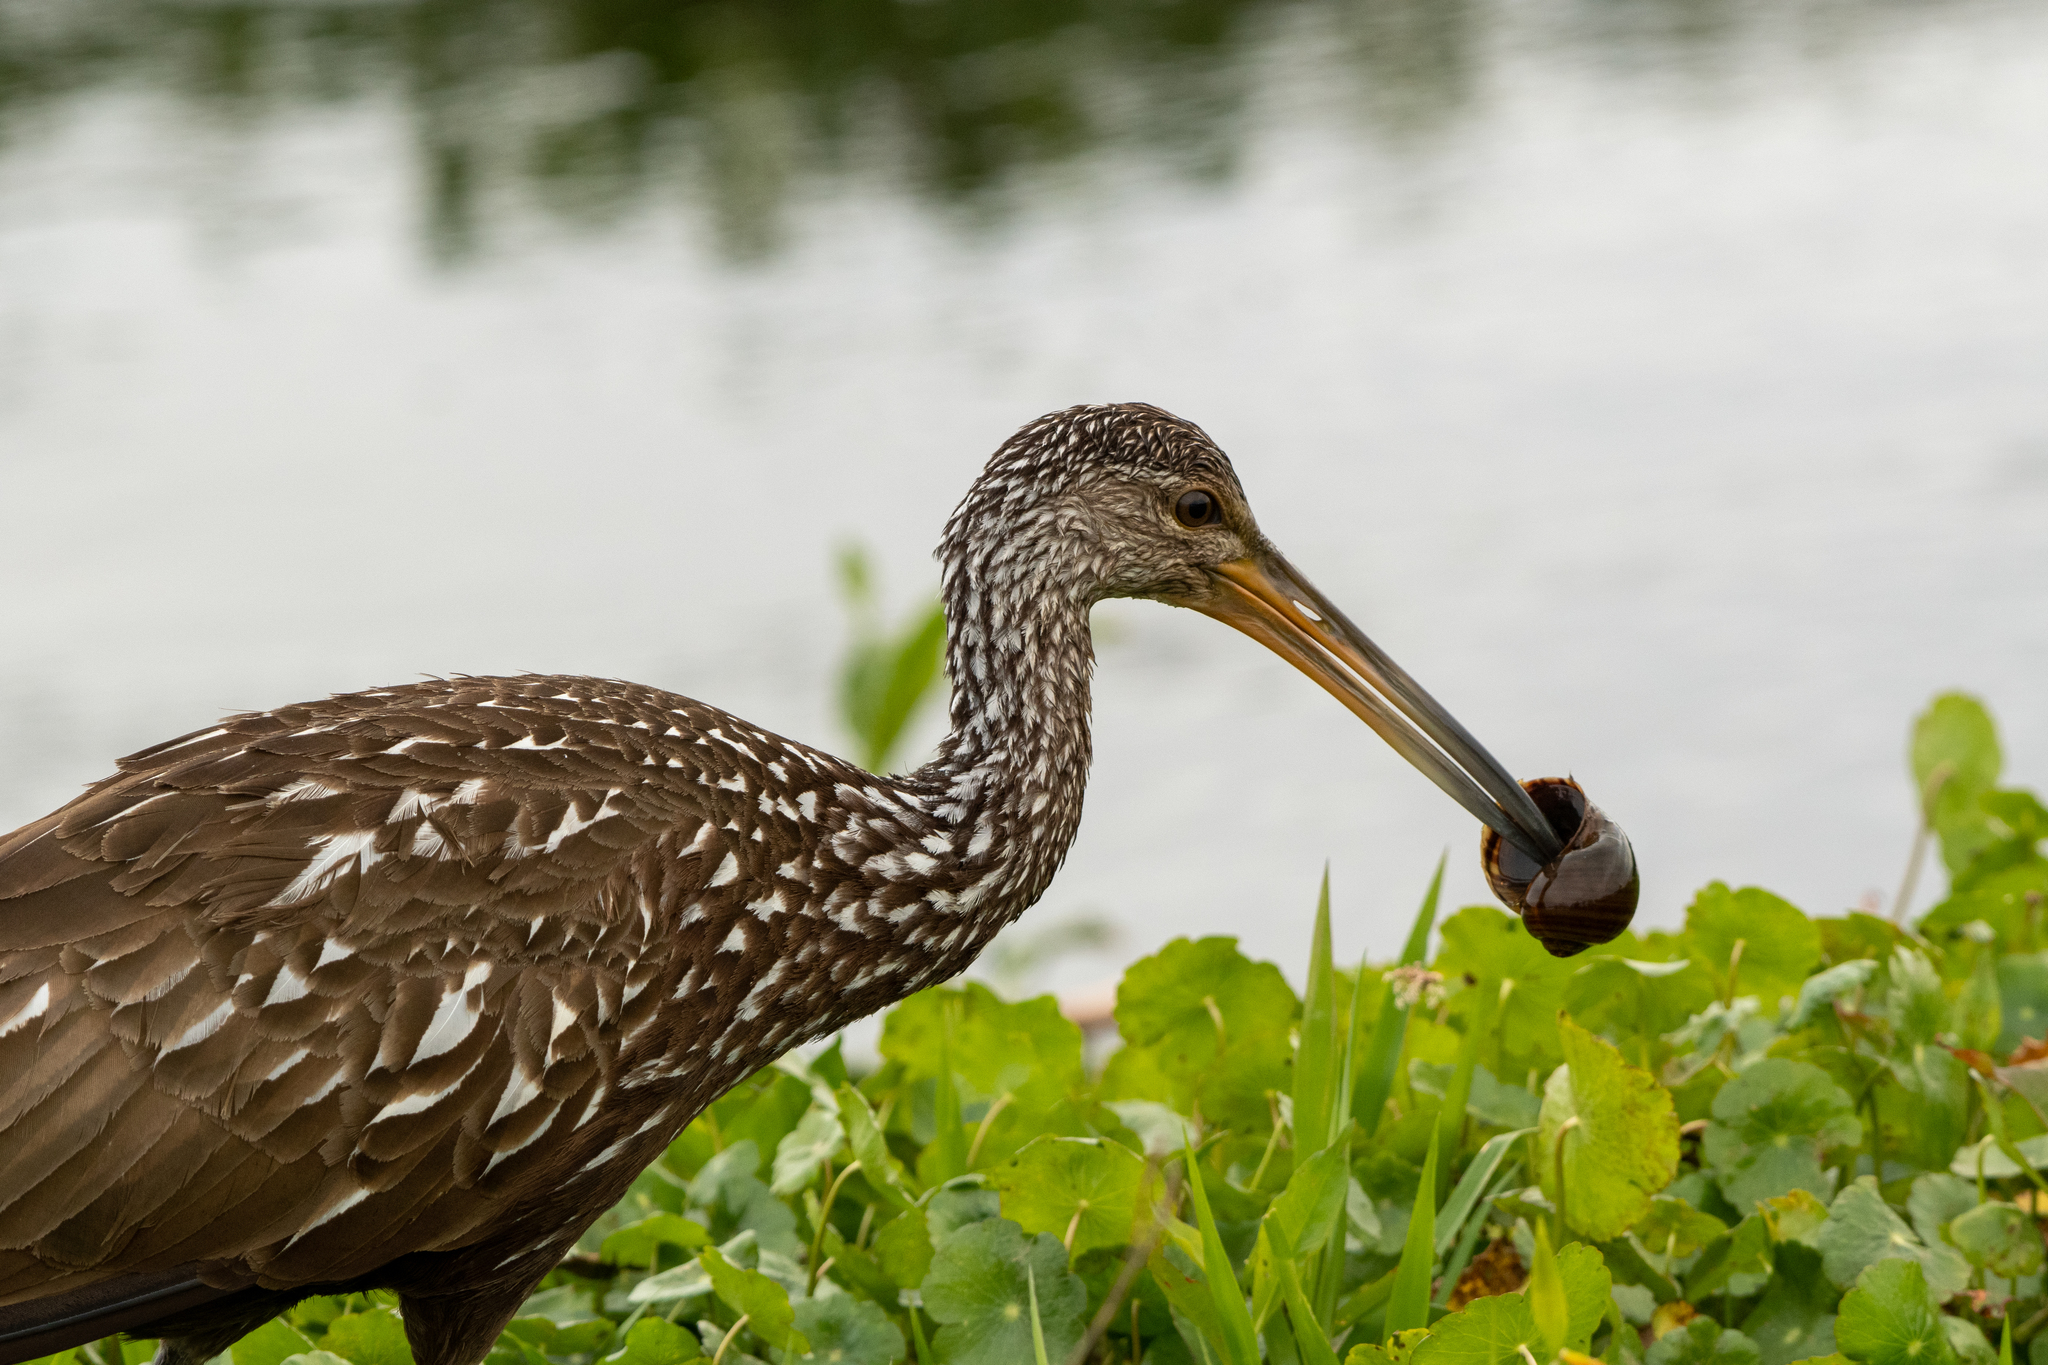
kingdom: Animalia
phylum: Chordata
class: Aves
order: Gruiformes
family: Aramidae
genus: Aramus
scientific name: Aramus guarauna
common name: Limpkin
